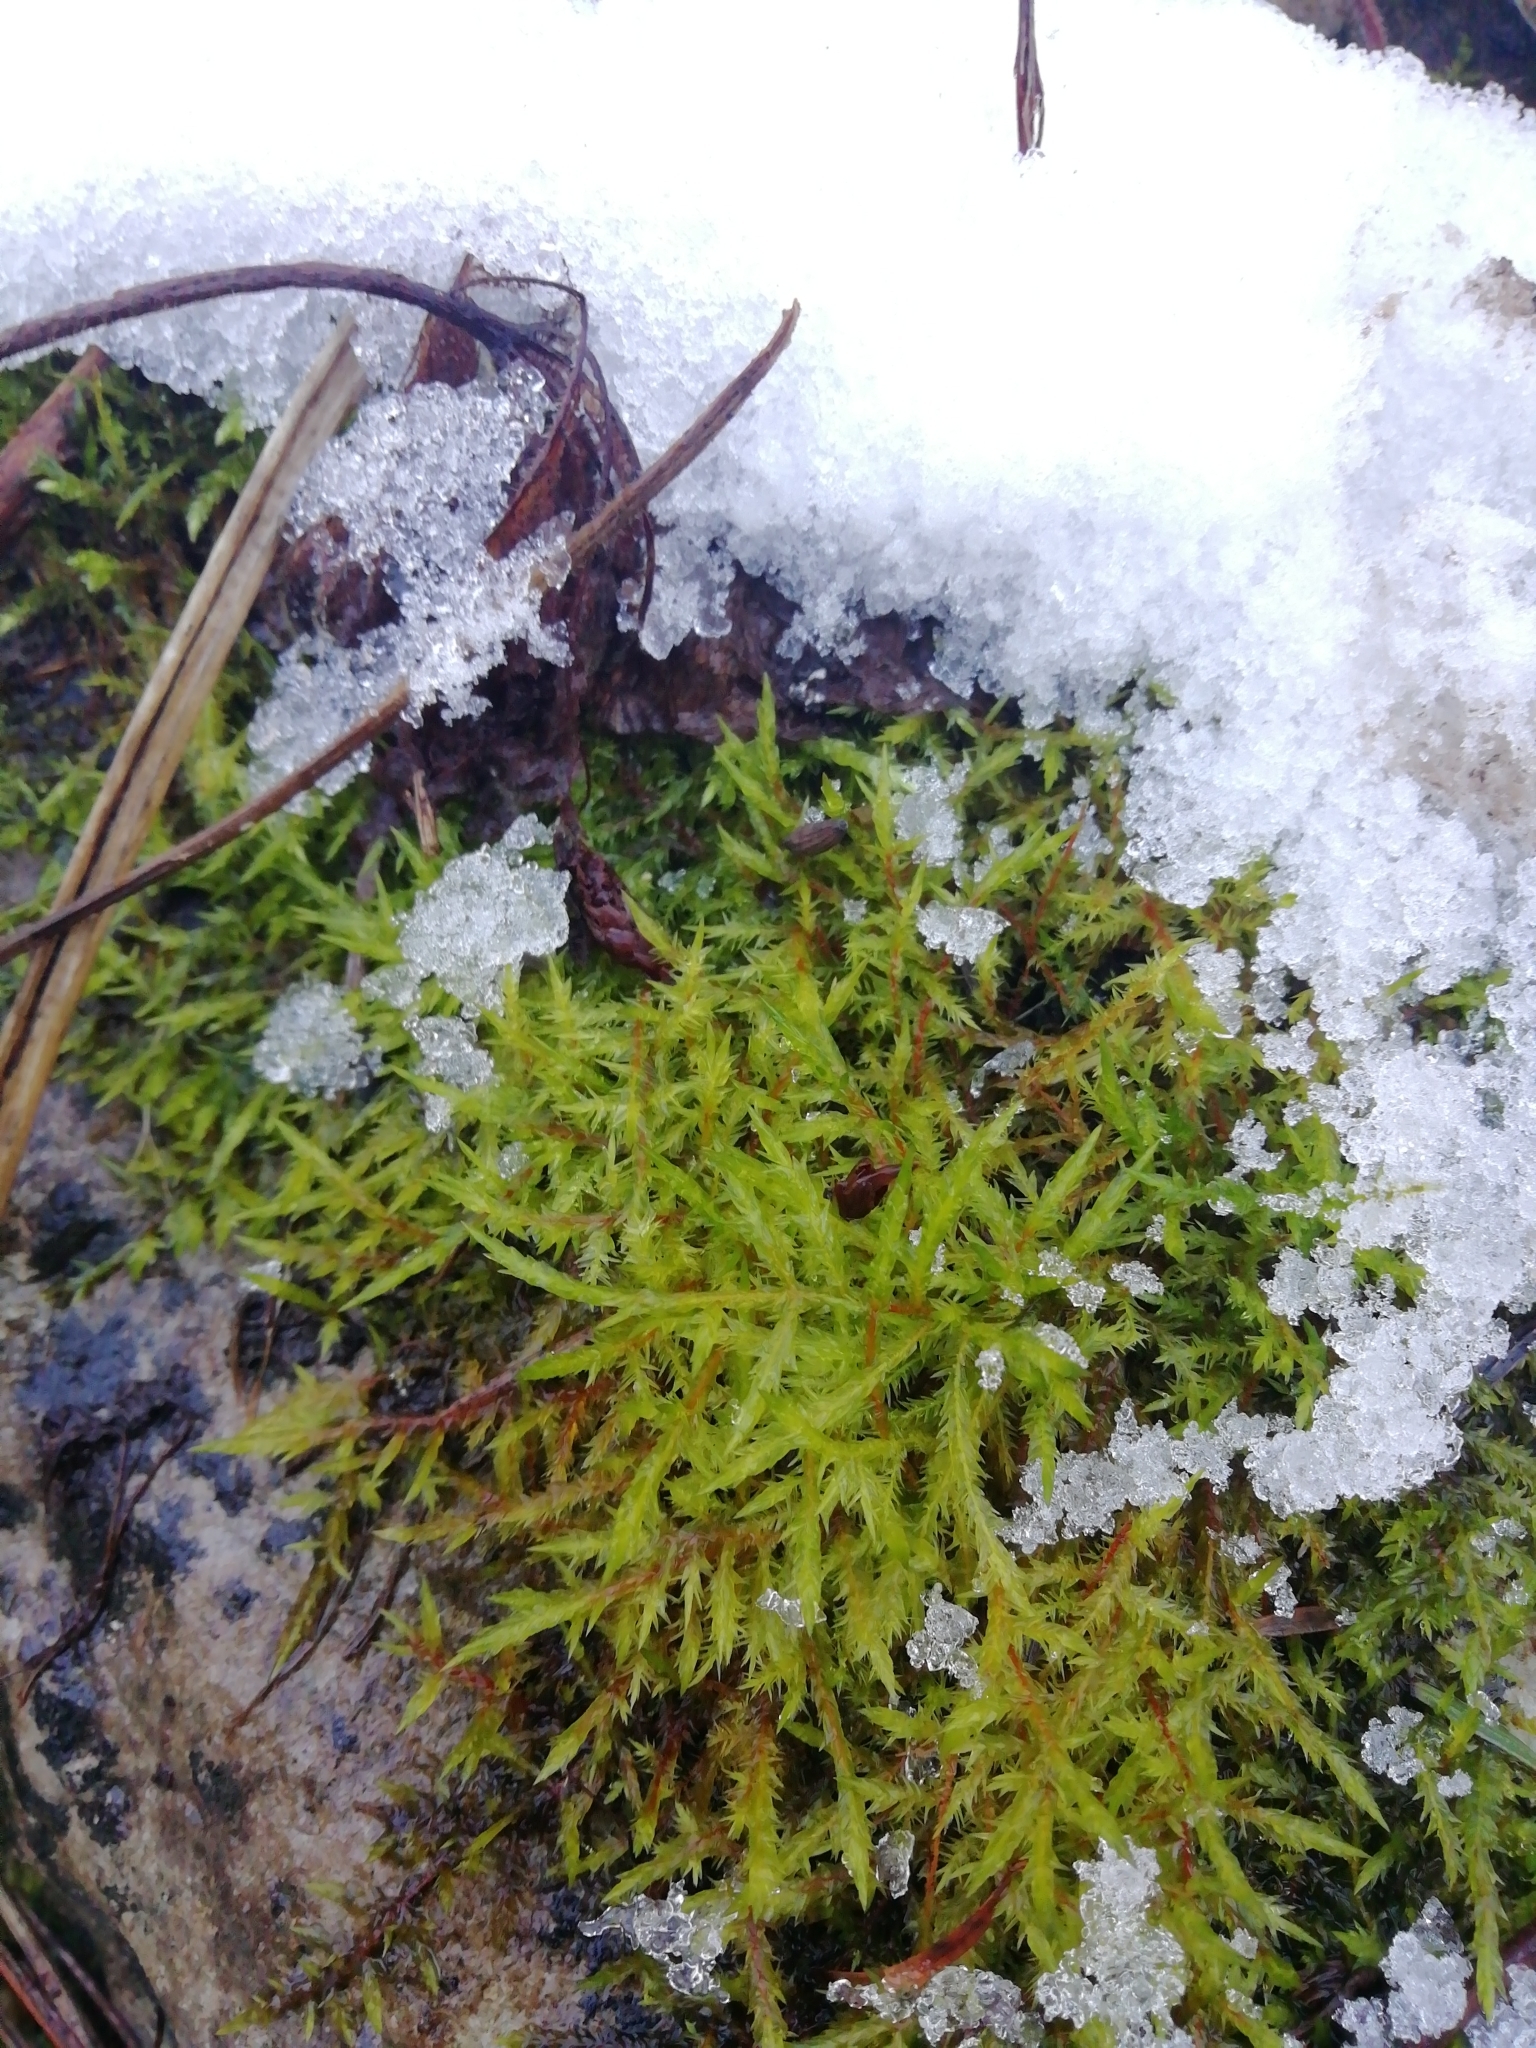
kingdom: Plantae
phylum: Bryophyta
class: Bryopsida
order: Hypnales
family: Pylaisiaceae
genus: Calliergonella
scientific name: Calliergonella cuspidata
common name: Common large wetland moss
